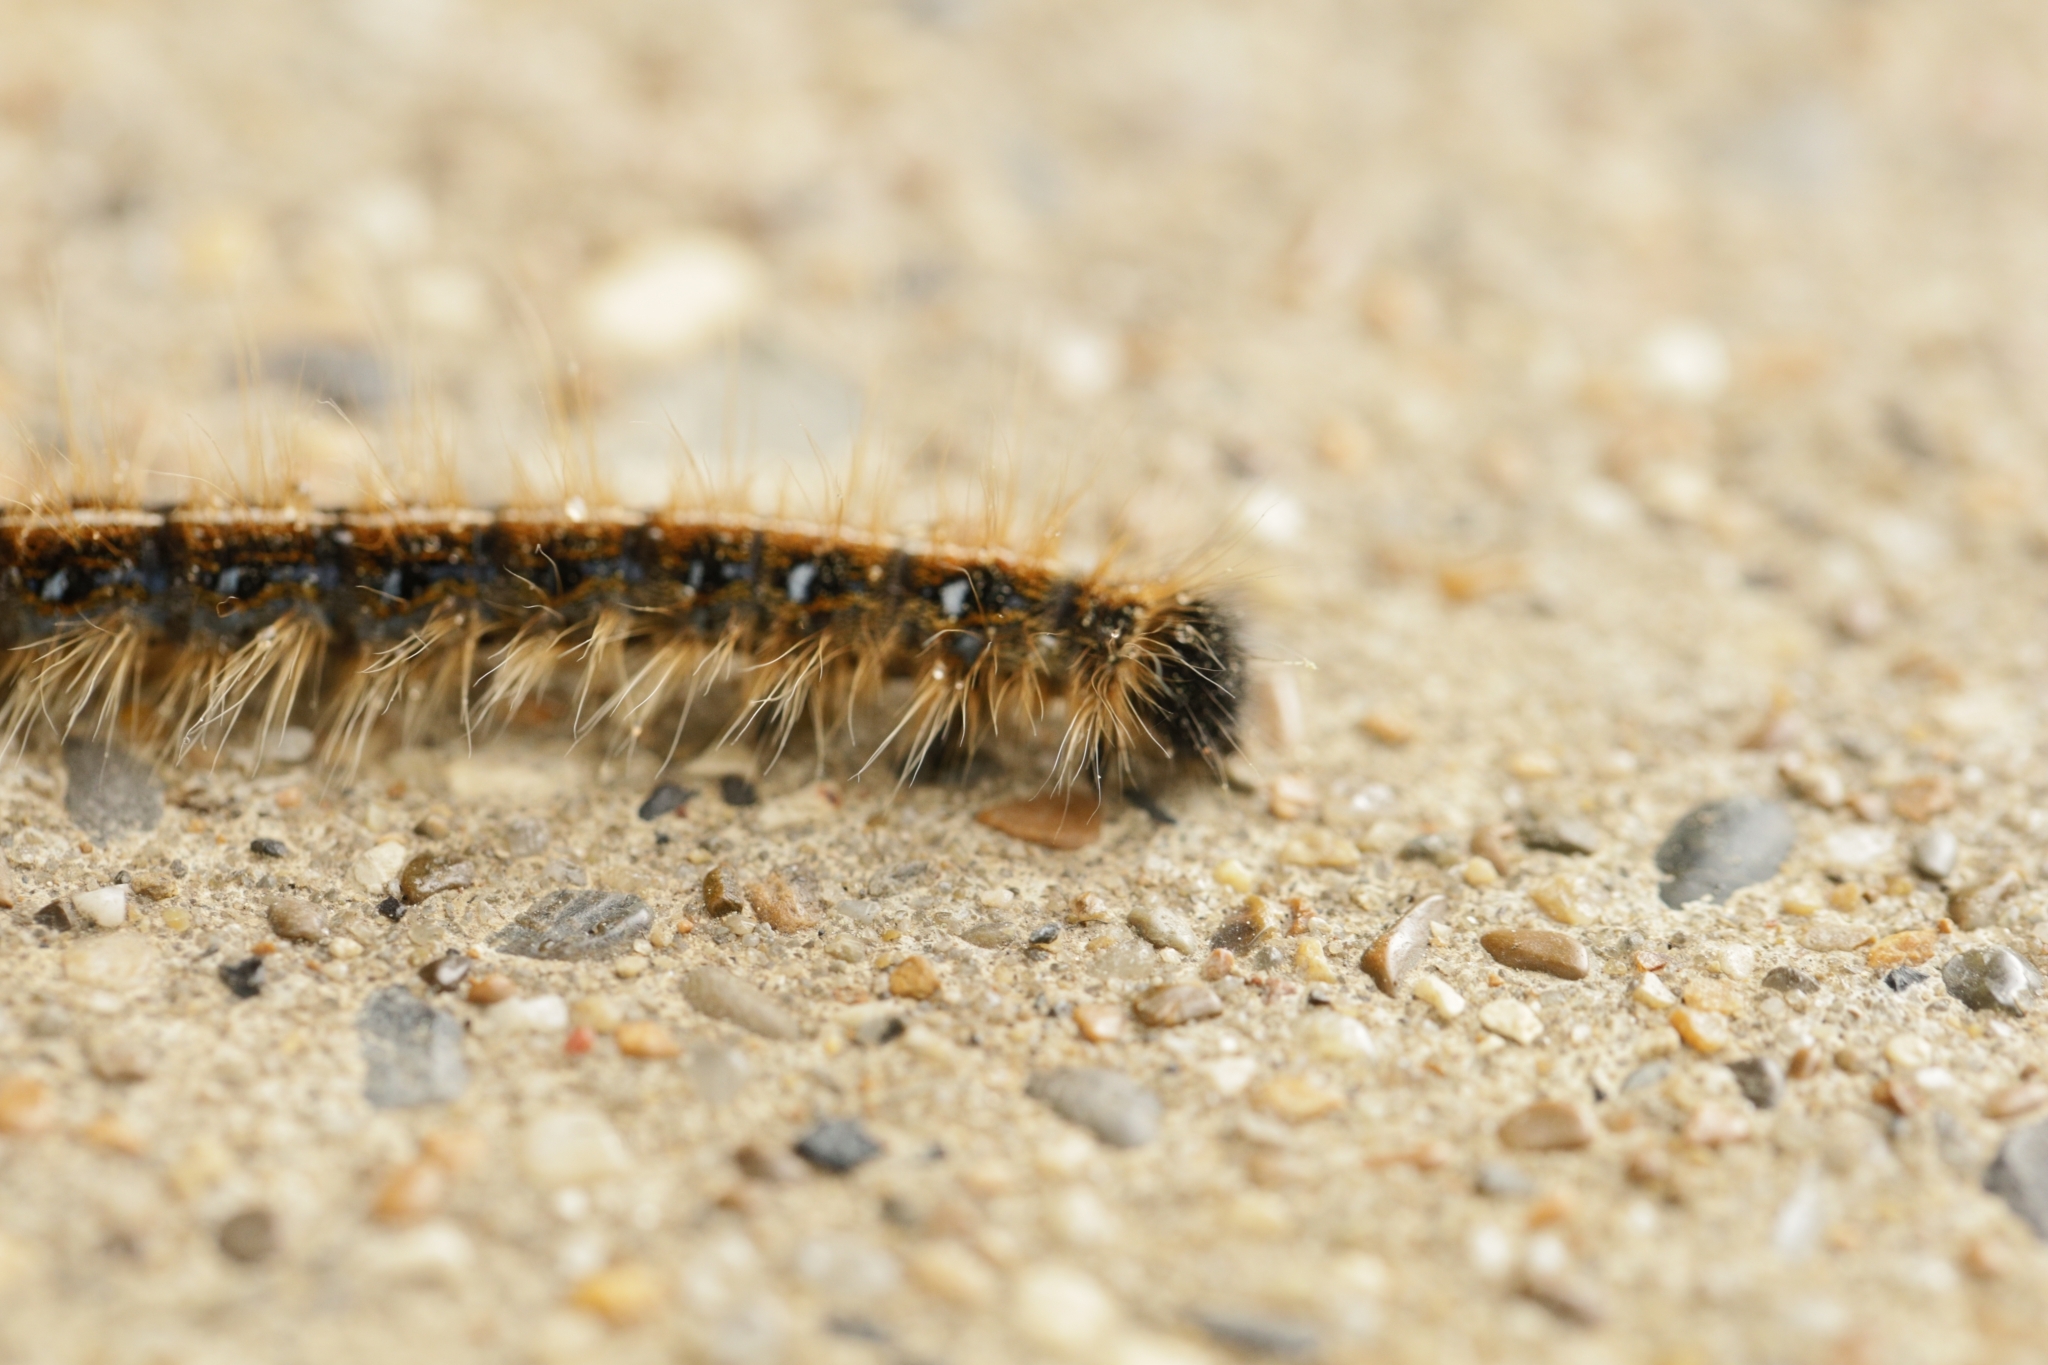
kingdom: Animalia
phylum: Arthropoda
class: Insecta
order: Lepidoptera
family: Lasiocampidae
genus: Malacosoma
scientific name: Malacosoma americana
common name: Eastern tent caterpillar moth
